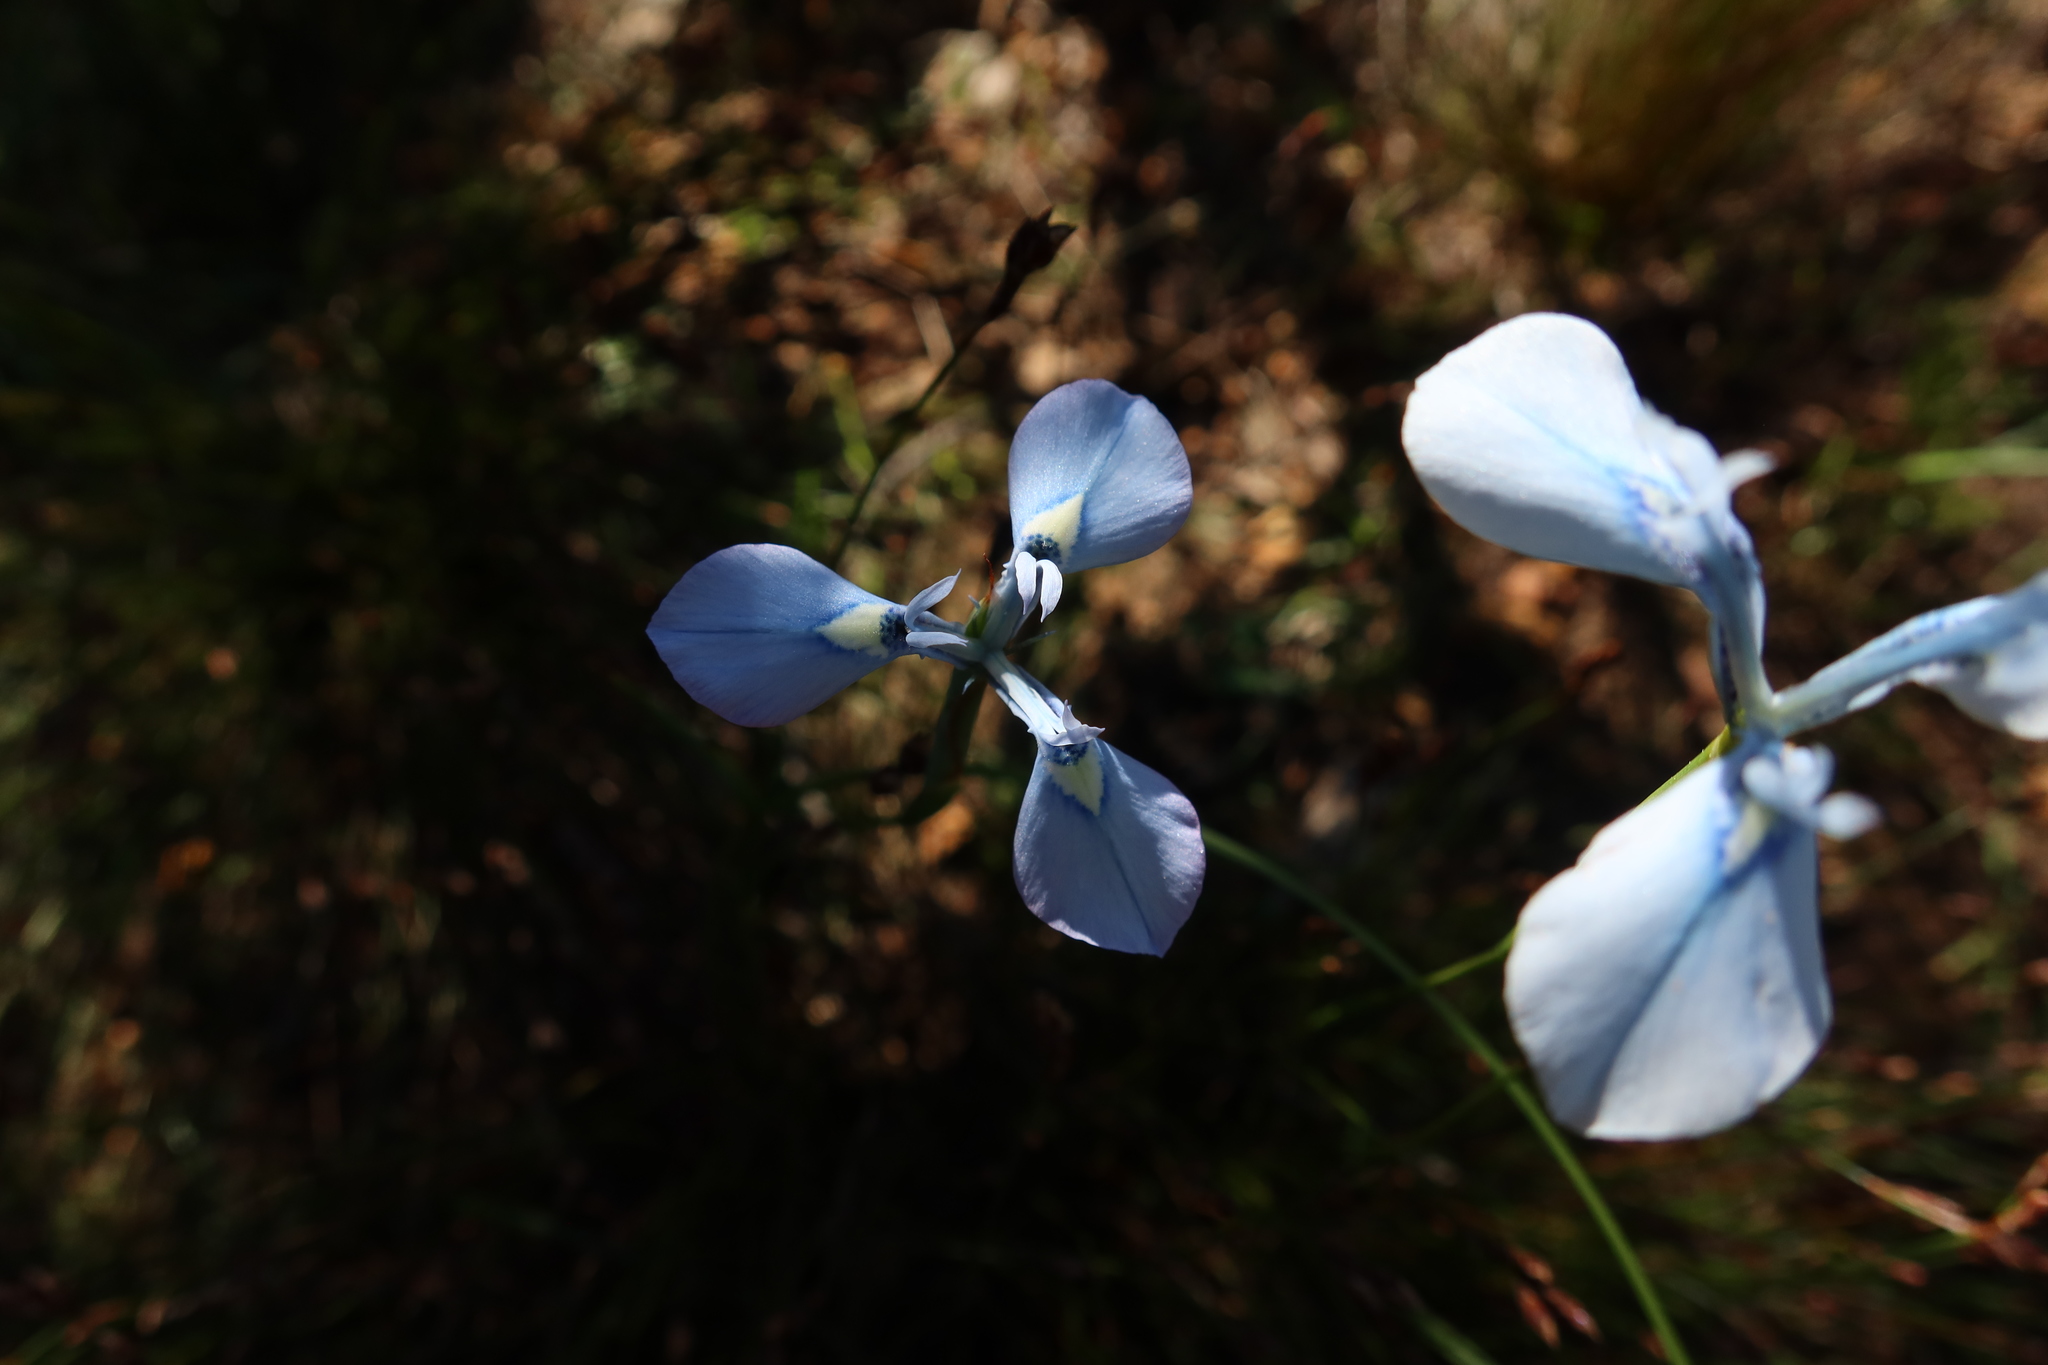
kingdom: Plantae
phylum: Tracheophyta
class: Liliopsida
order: Asparagales
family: Iridaceae
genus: Moraea
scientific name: Moraea tripetala
